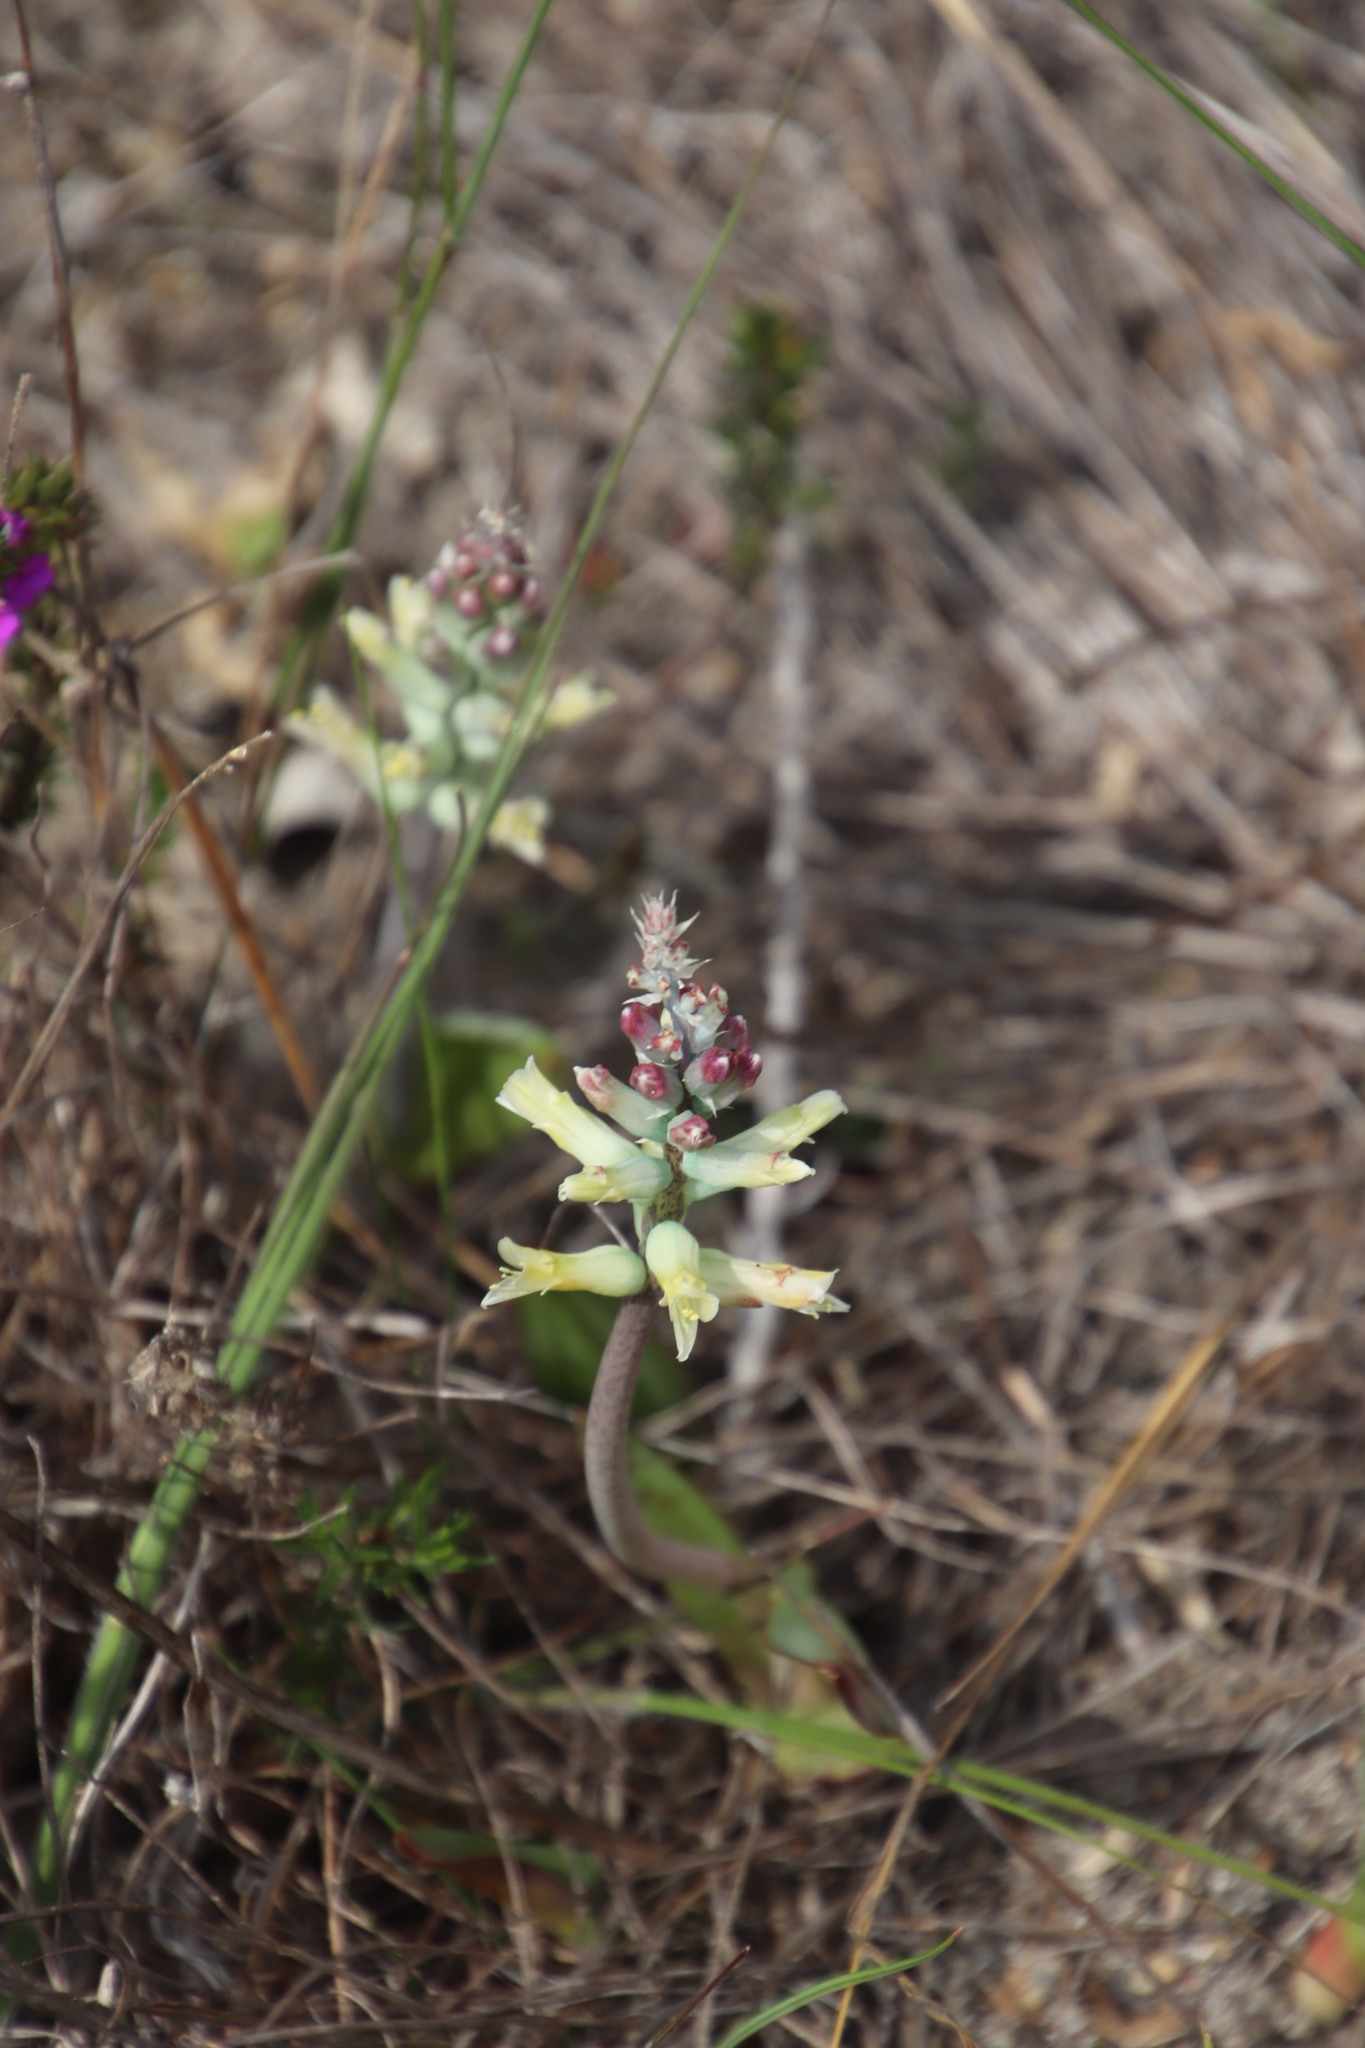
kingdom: Plantae
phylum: Tracheophyta
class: Liliopsida
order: Asparagales
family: Asparagaceae
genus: Lachenalia
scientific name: Lachenalia orchioides
